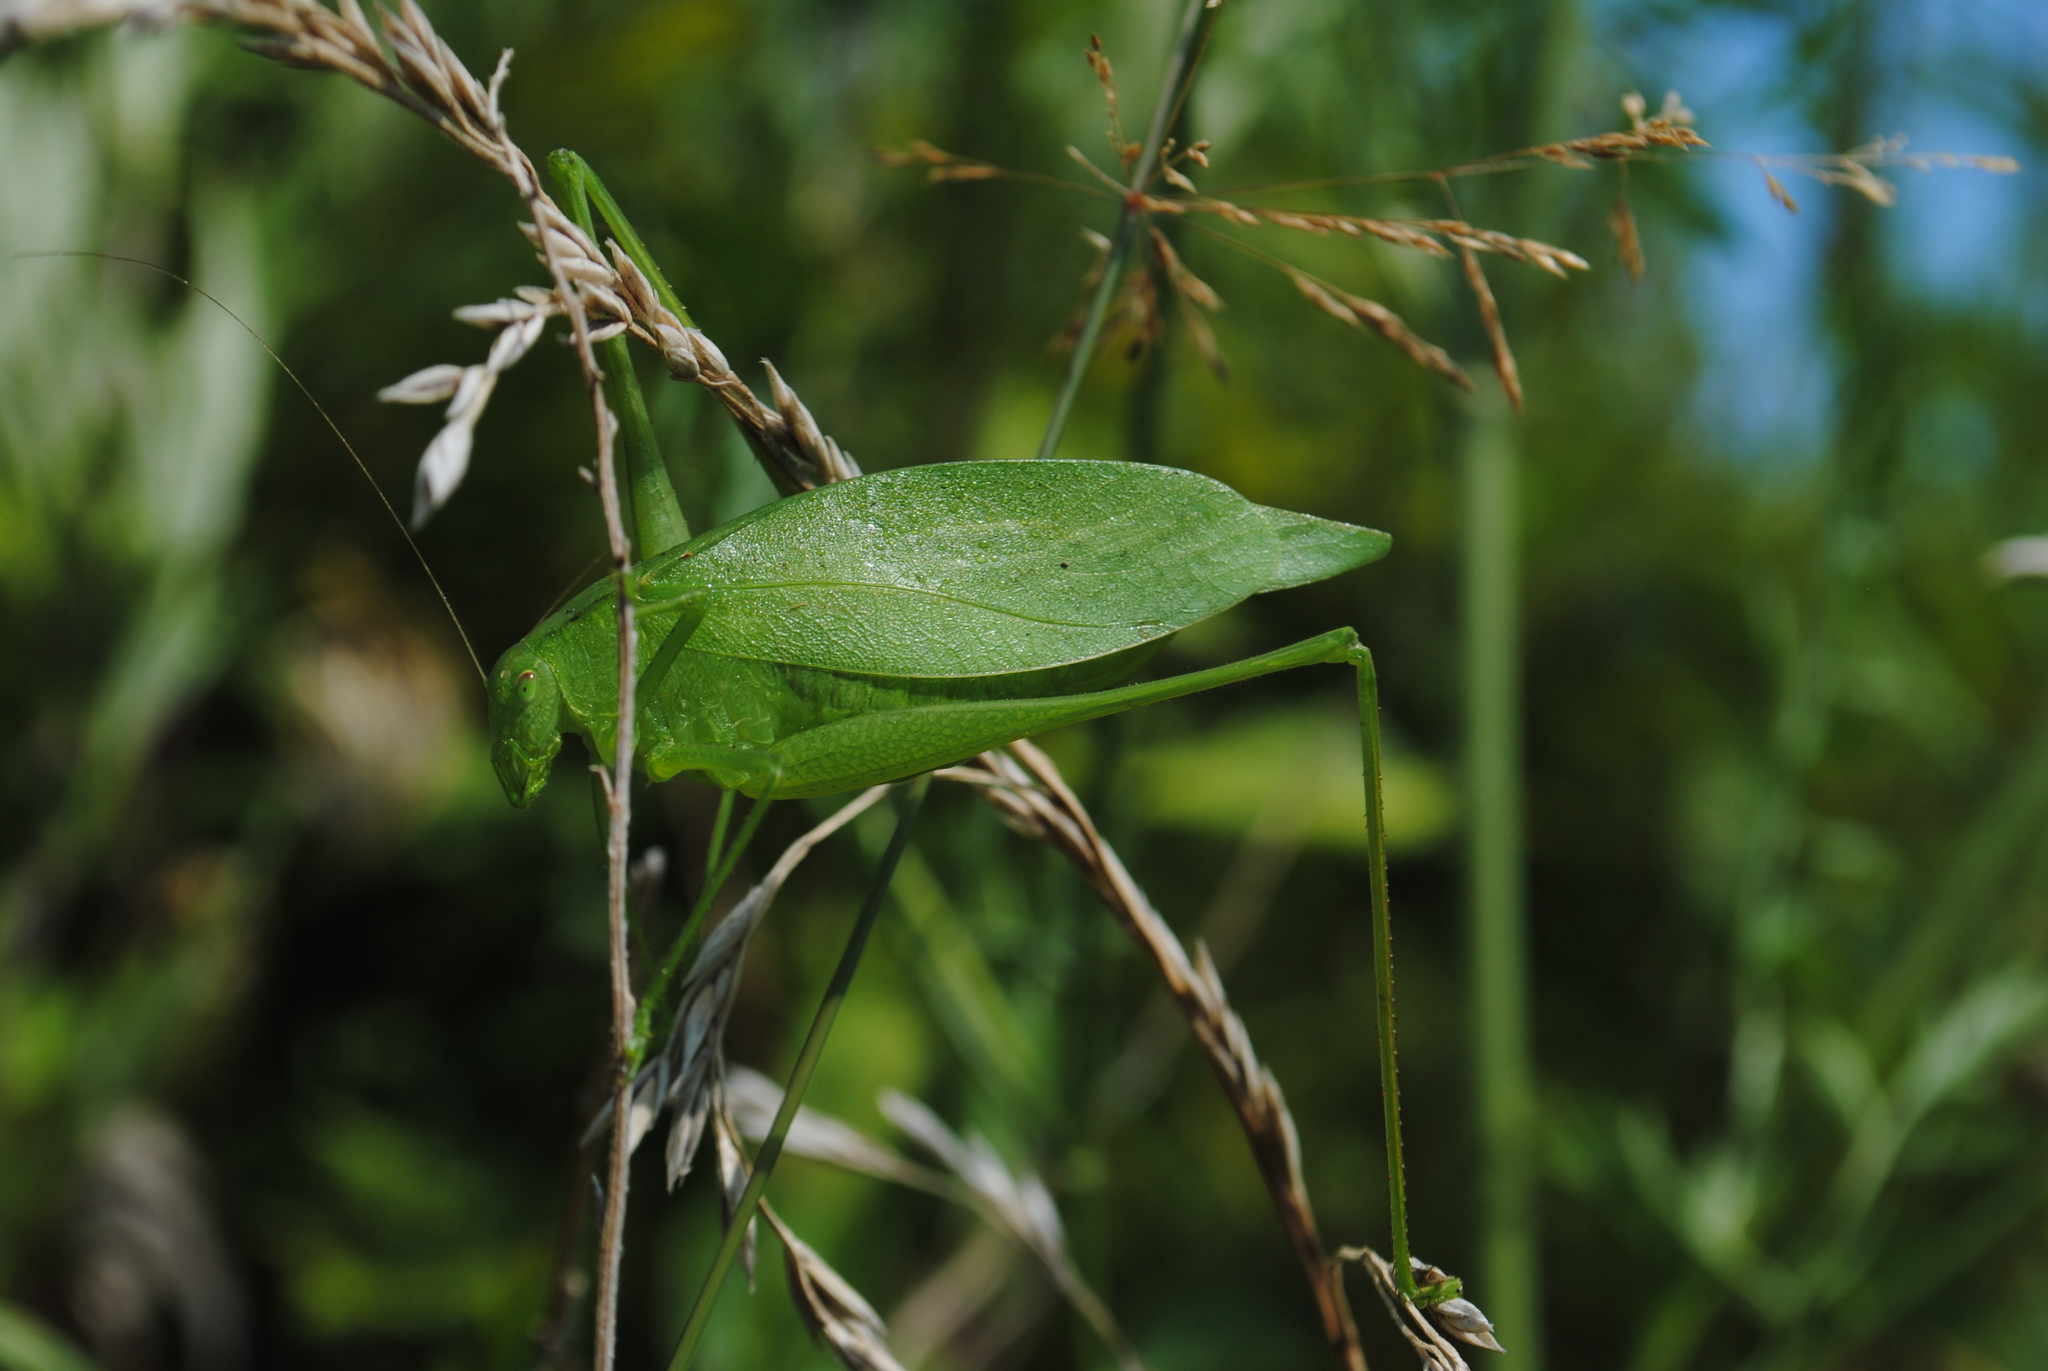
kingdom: Animalia
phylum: Arthropoda
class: Insecta
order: Orthoptera
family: Tettigoniidae
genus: Amblycorypha
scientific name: Amblycorypha oblongifolia
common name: Oblong-winged katydid
